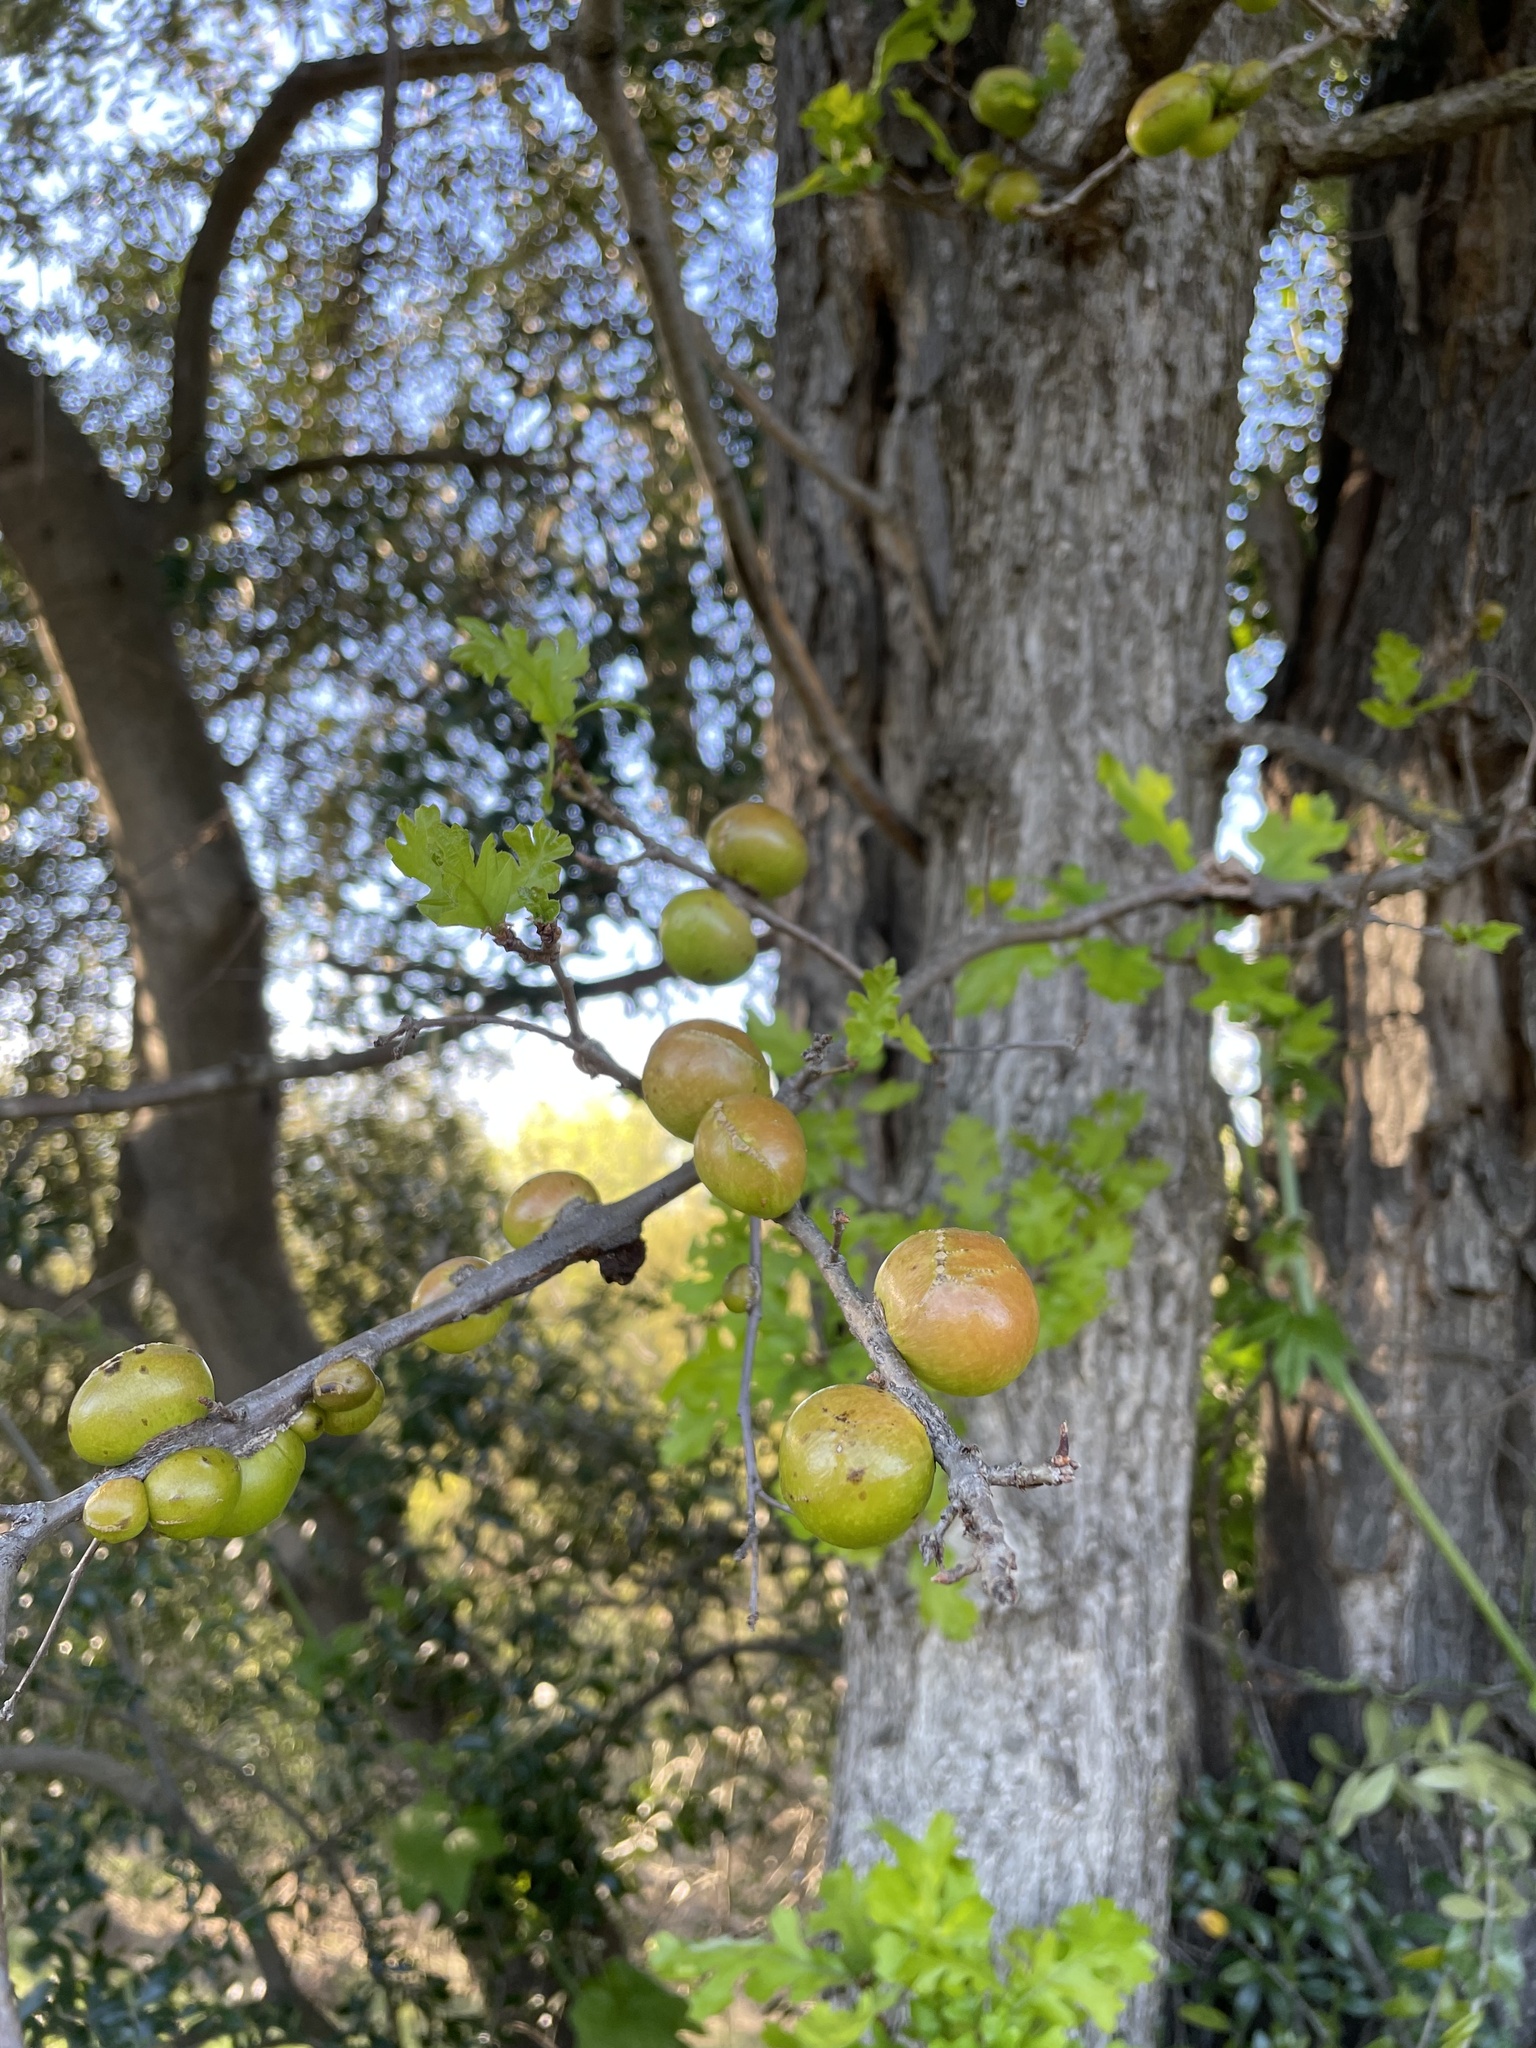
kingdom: Animalia
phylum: Arthropoda
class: Insecta
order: Hymenoptera
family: Cynipidae
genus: Andricus
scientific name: Andricus quercuscalifornicus
